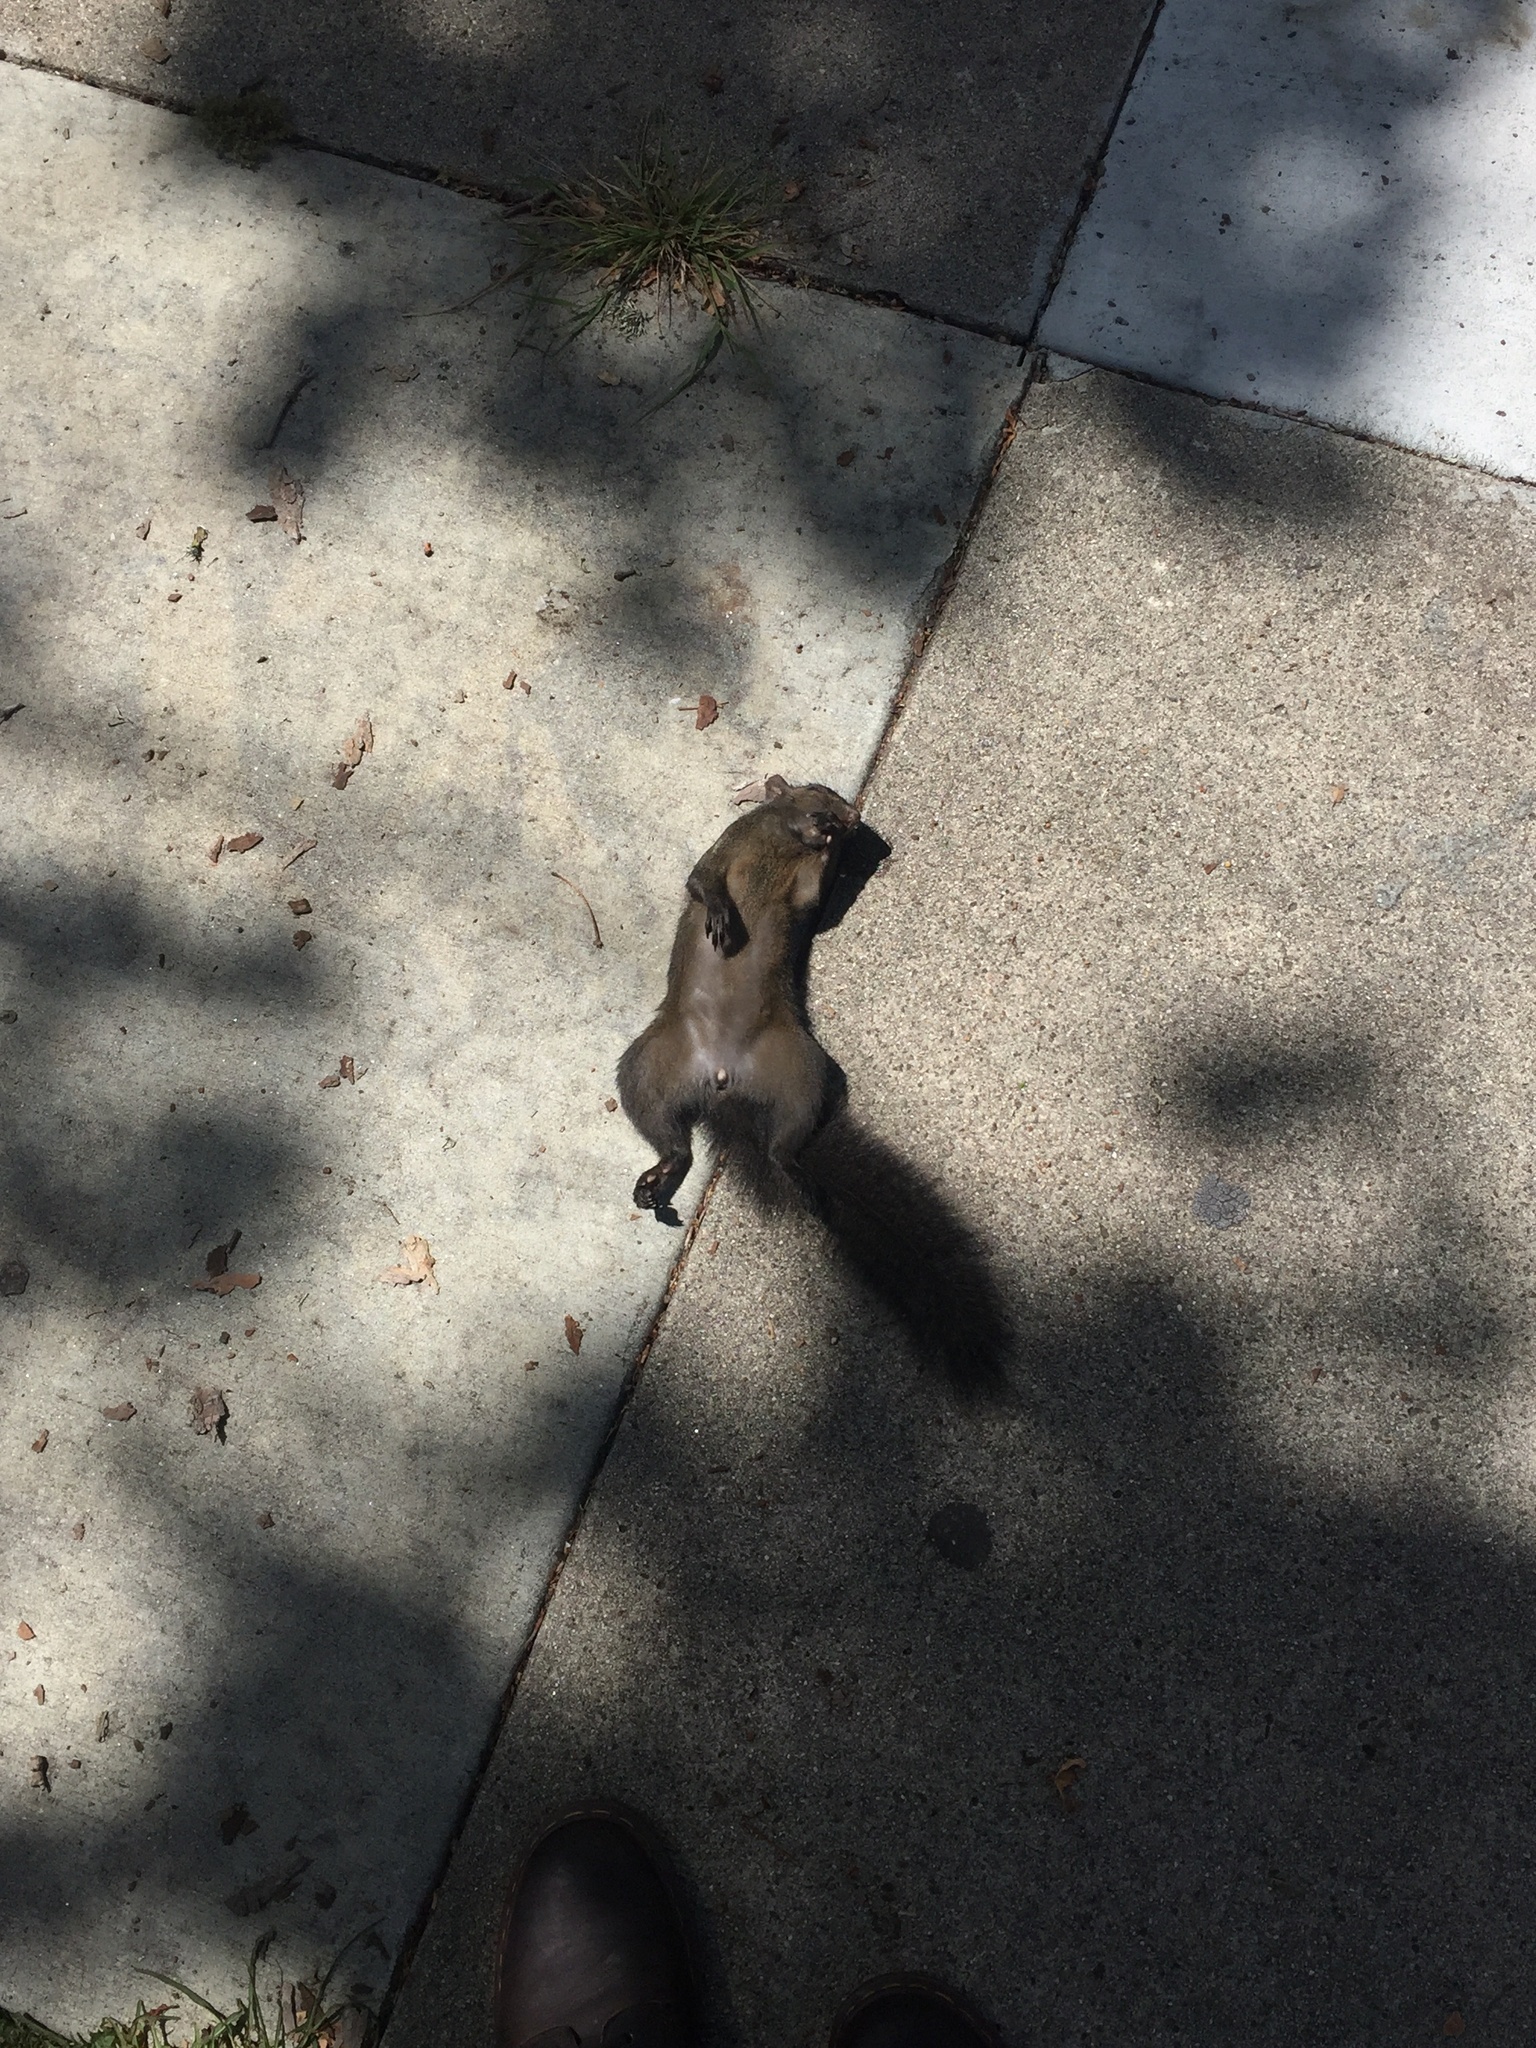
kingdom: Animalia
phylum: Chordata
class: Mammalia
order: Rodentia
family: Sciuridae
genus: Sciurus
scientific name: Sciurus carolinensis
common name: Eastern gray squirrel
